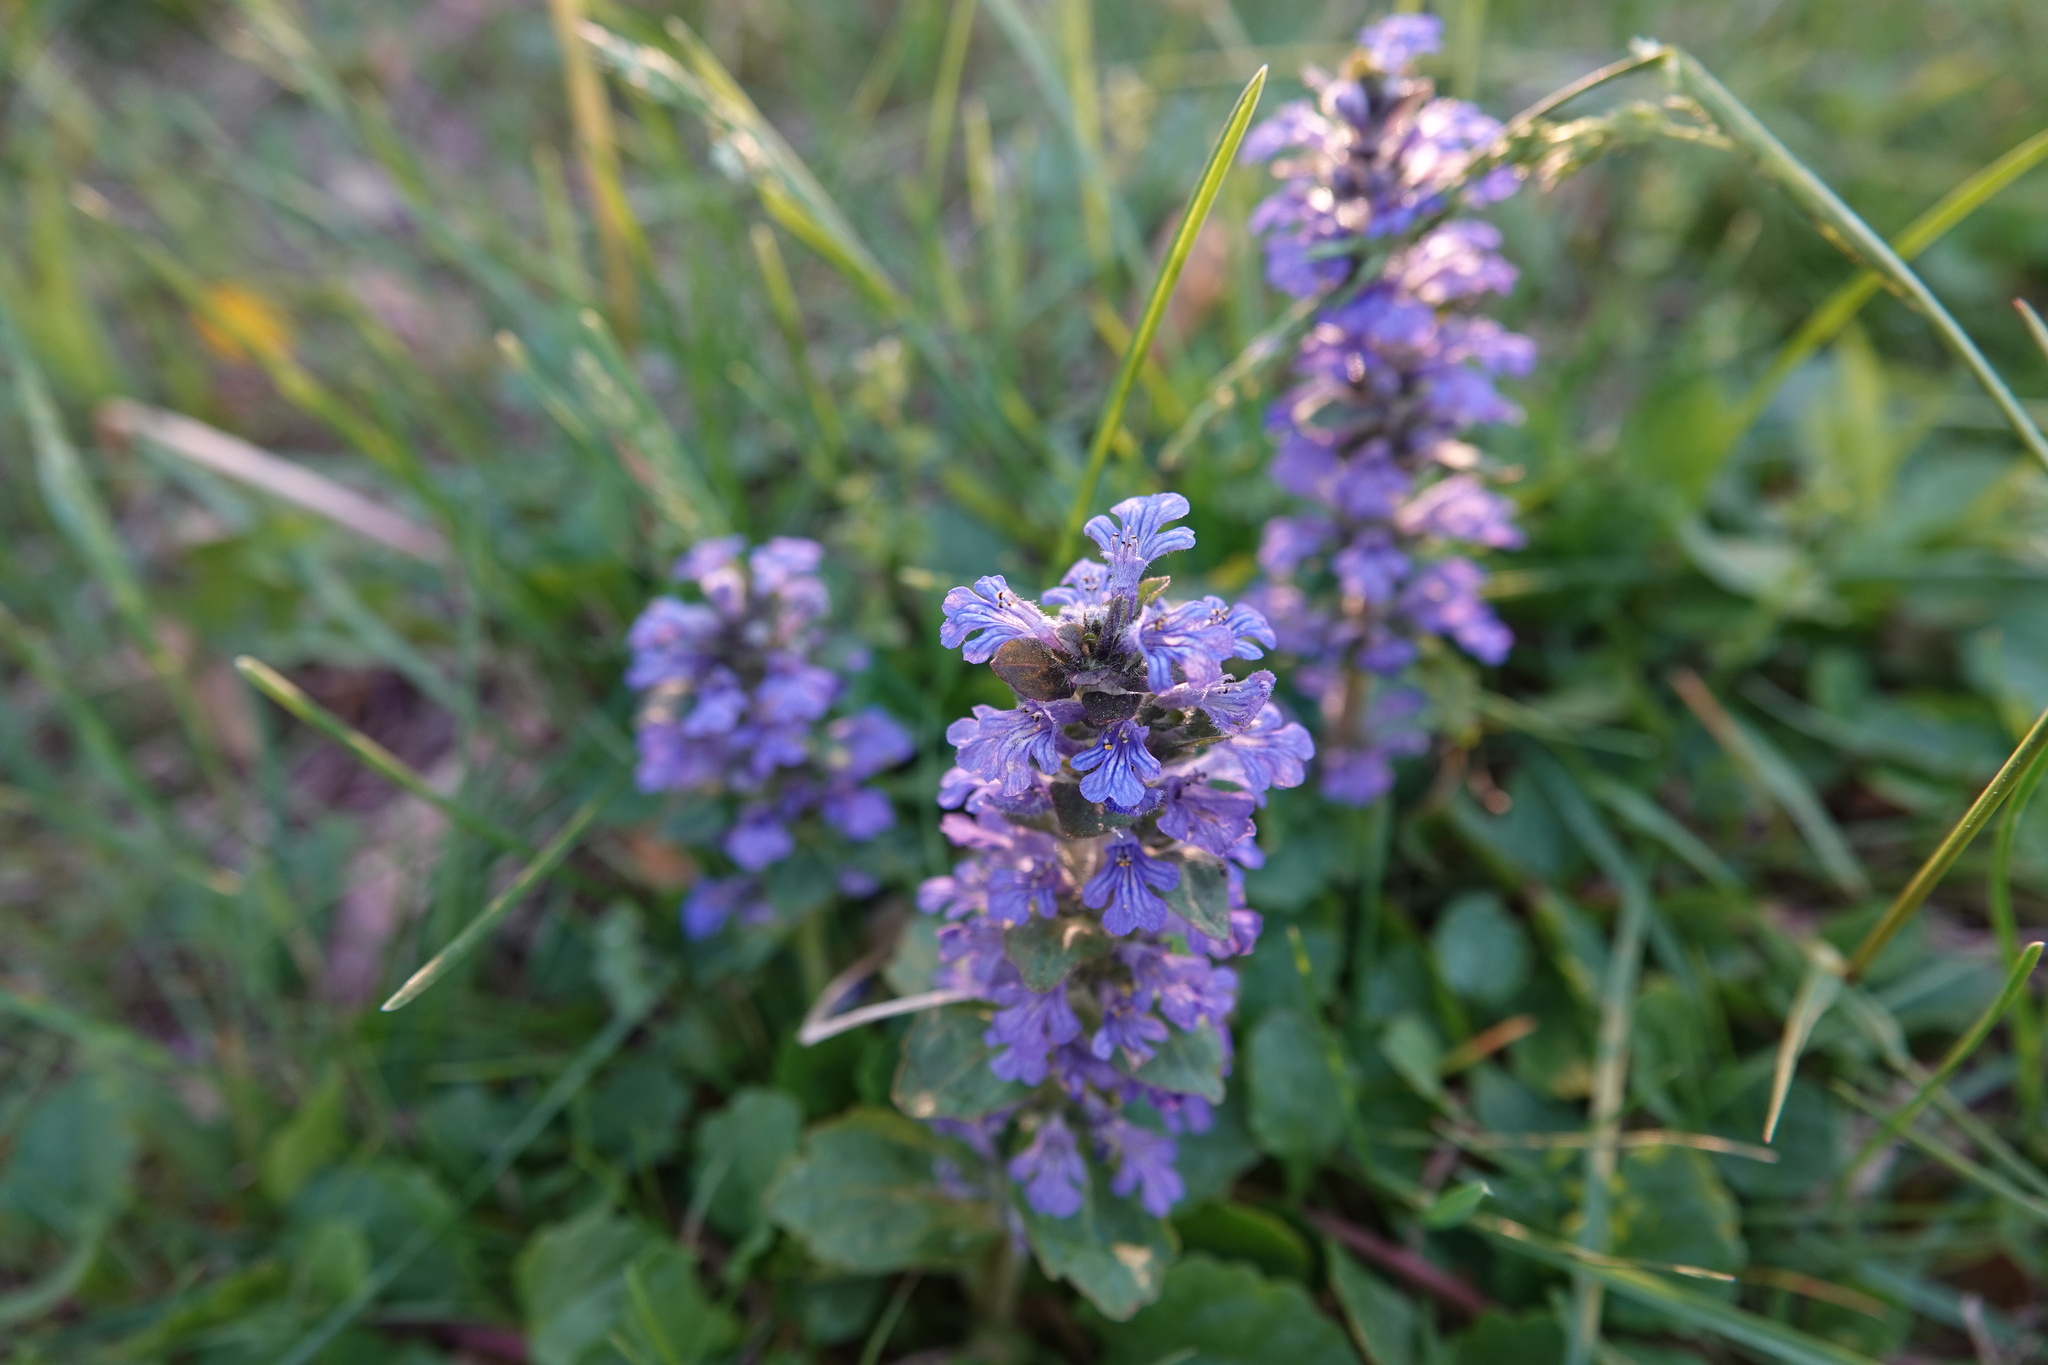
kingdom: Plantae
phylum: Tracheophyta
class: Magnoliopsida
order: Lamiales
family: Lamiaceae
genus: Ajuga
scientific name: Ajuga reptans
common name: Bugle
